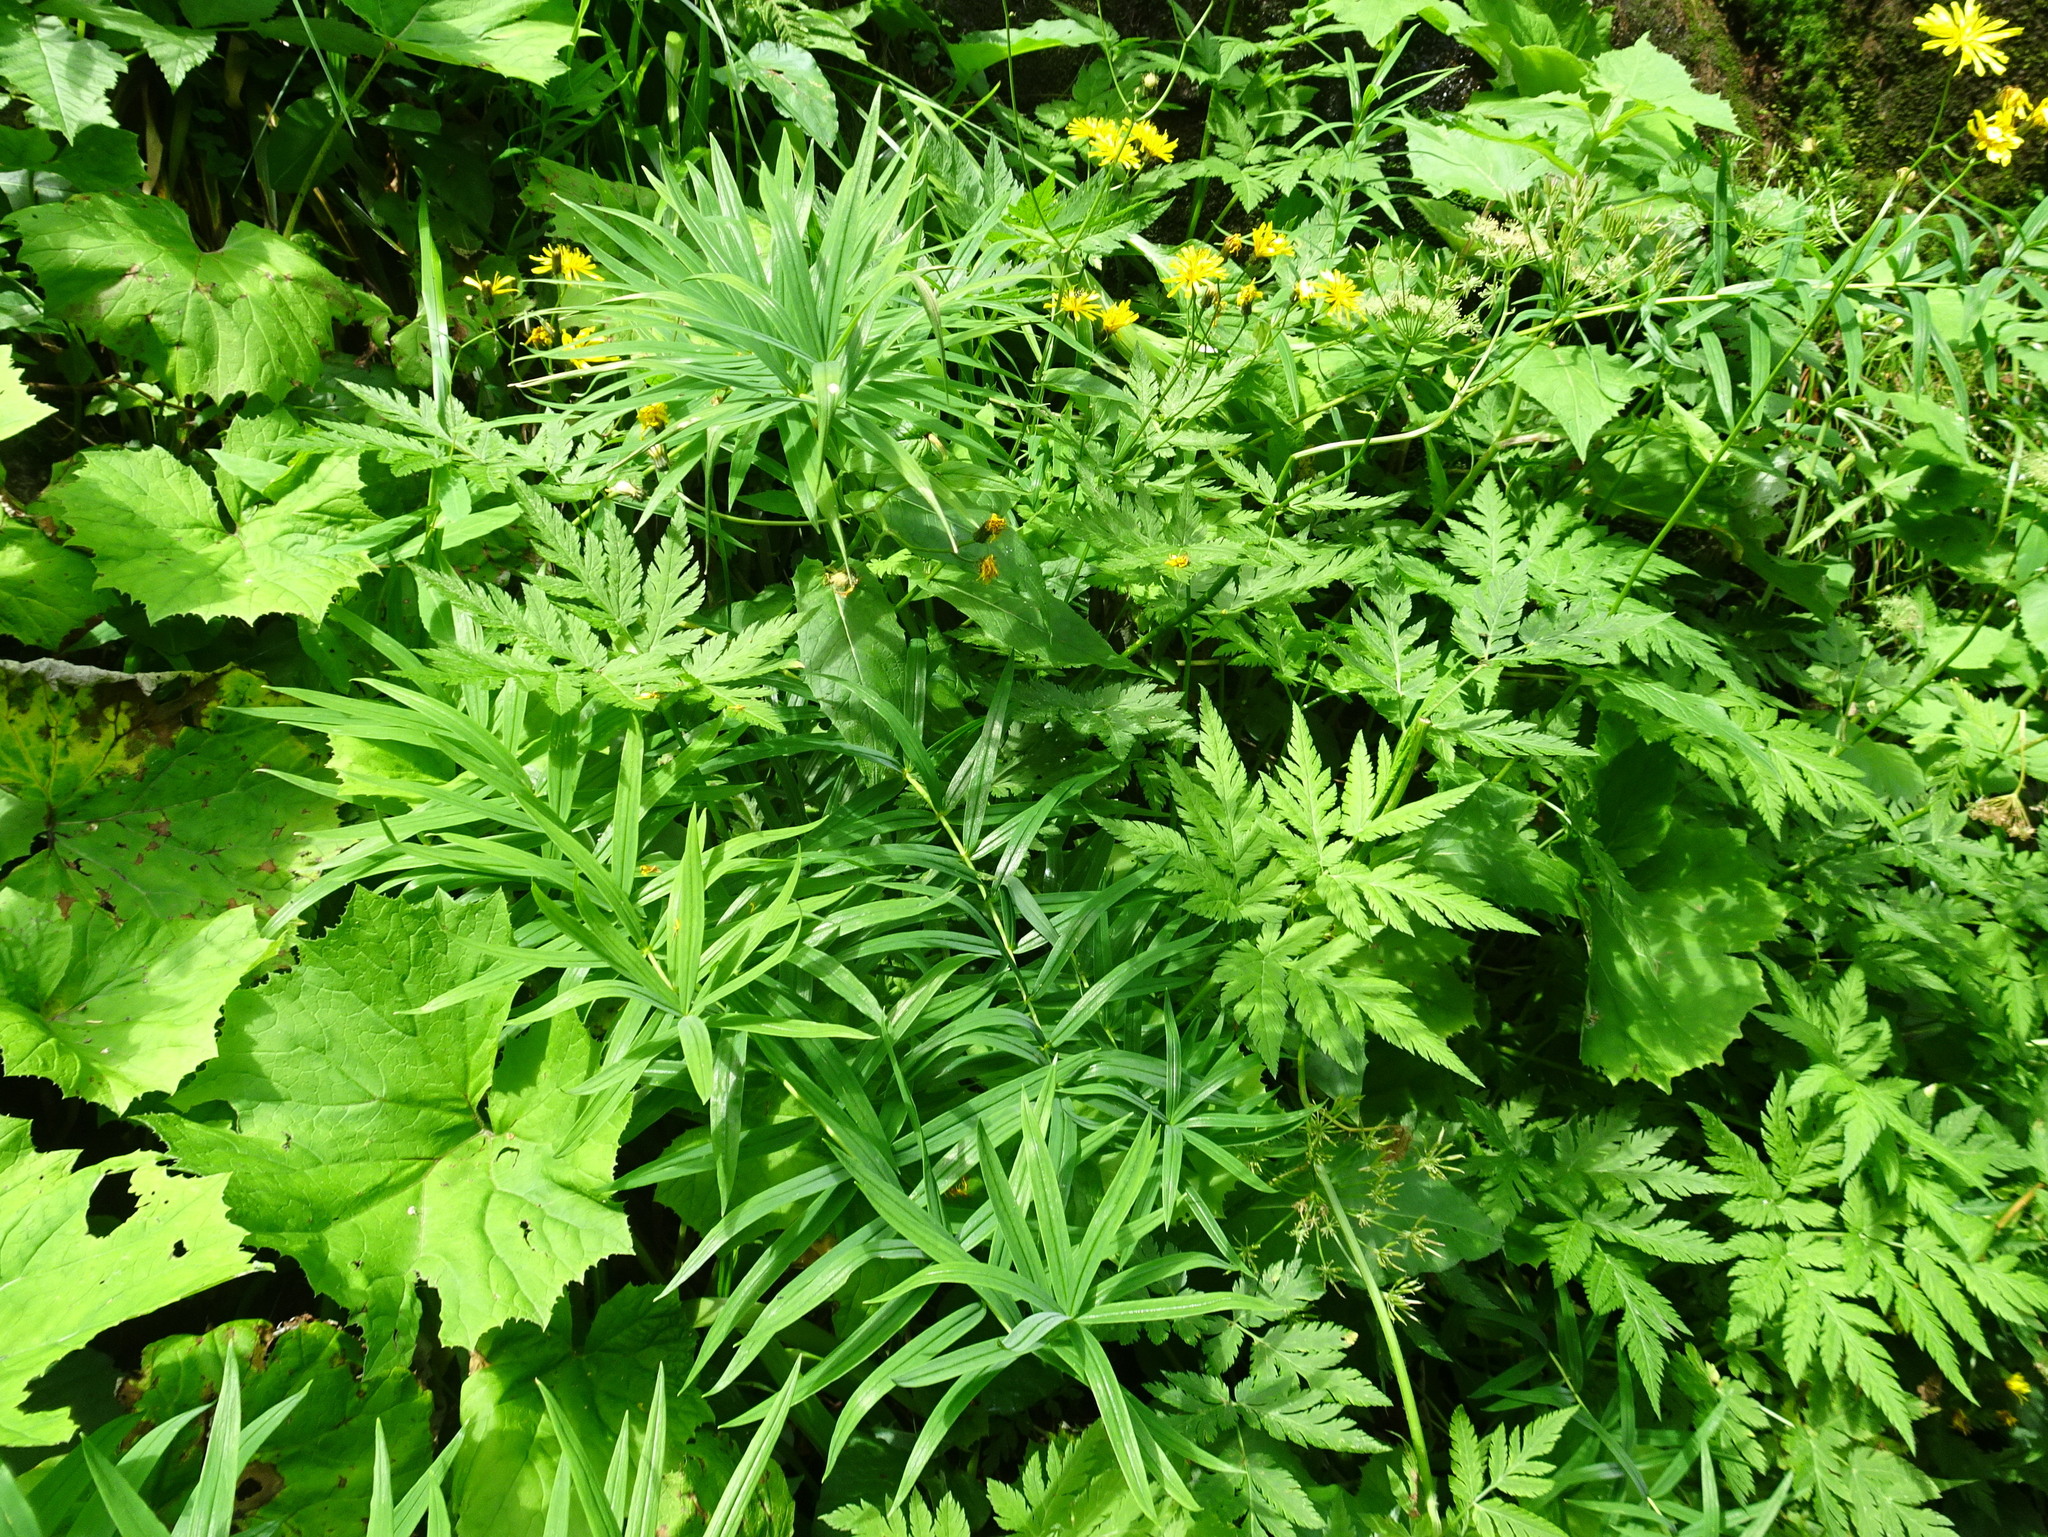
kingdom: Plantae
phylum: Tracheophyta
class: Liliopsida
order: Asparagales
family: Asparagaceae
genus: Polygonatum
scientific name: Polygonatum verticillatum
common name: Whorled solomon's-seal
